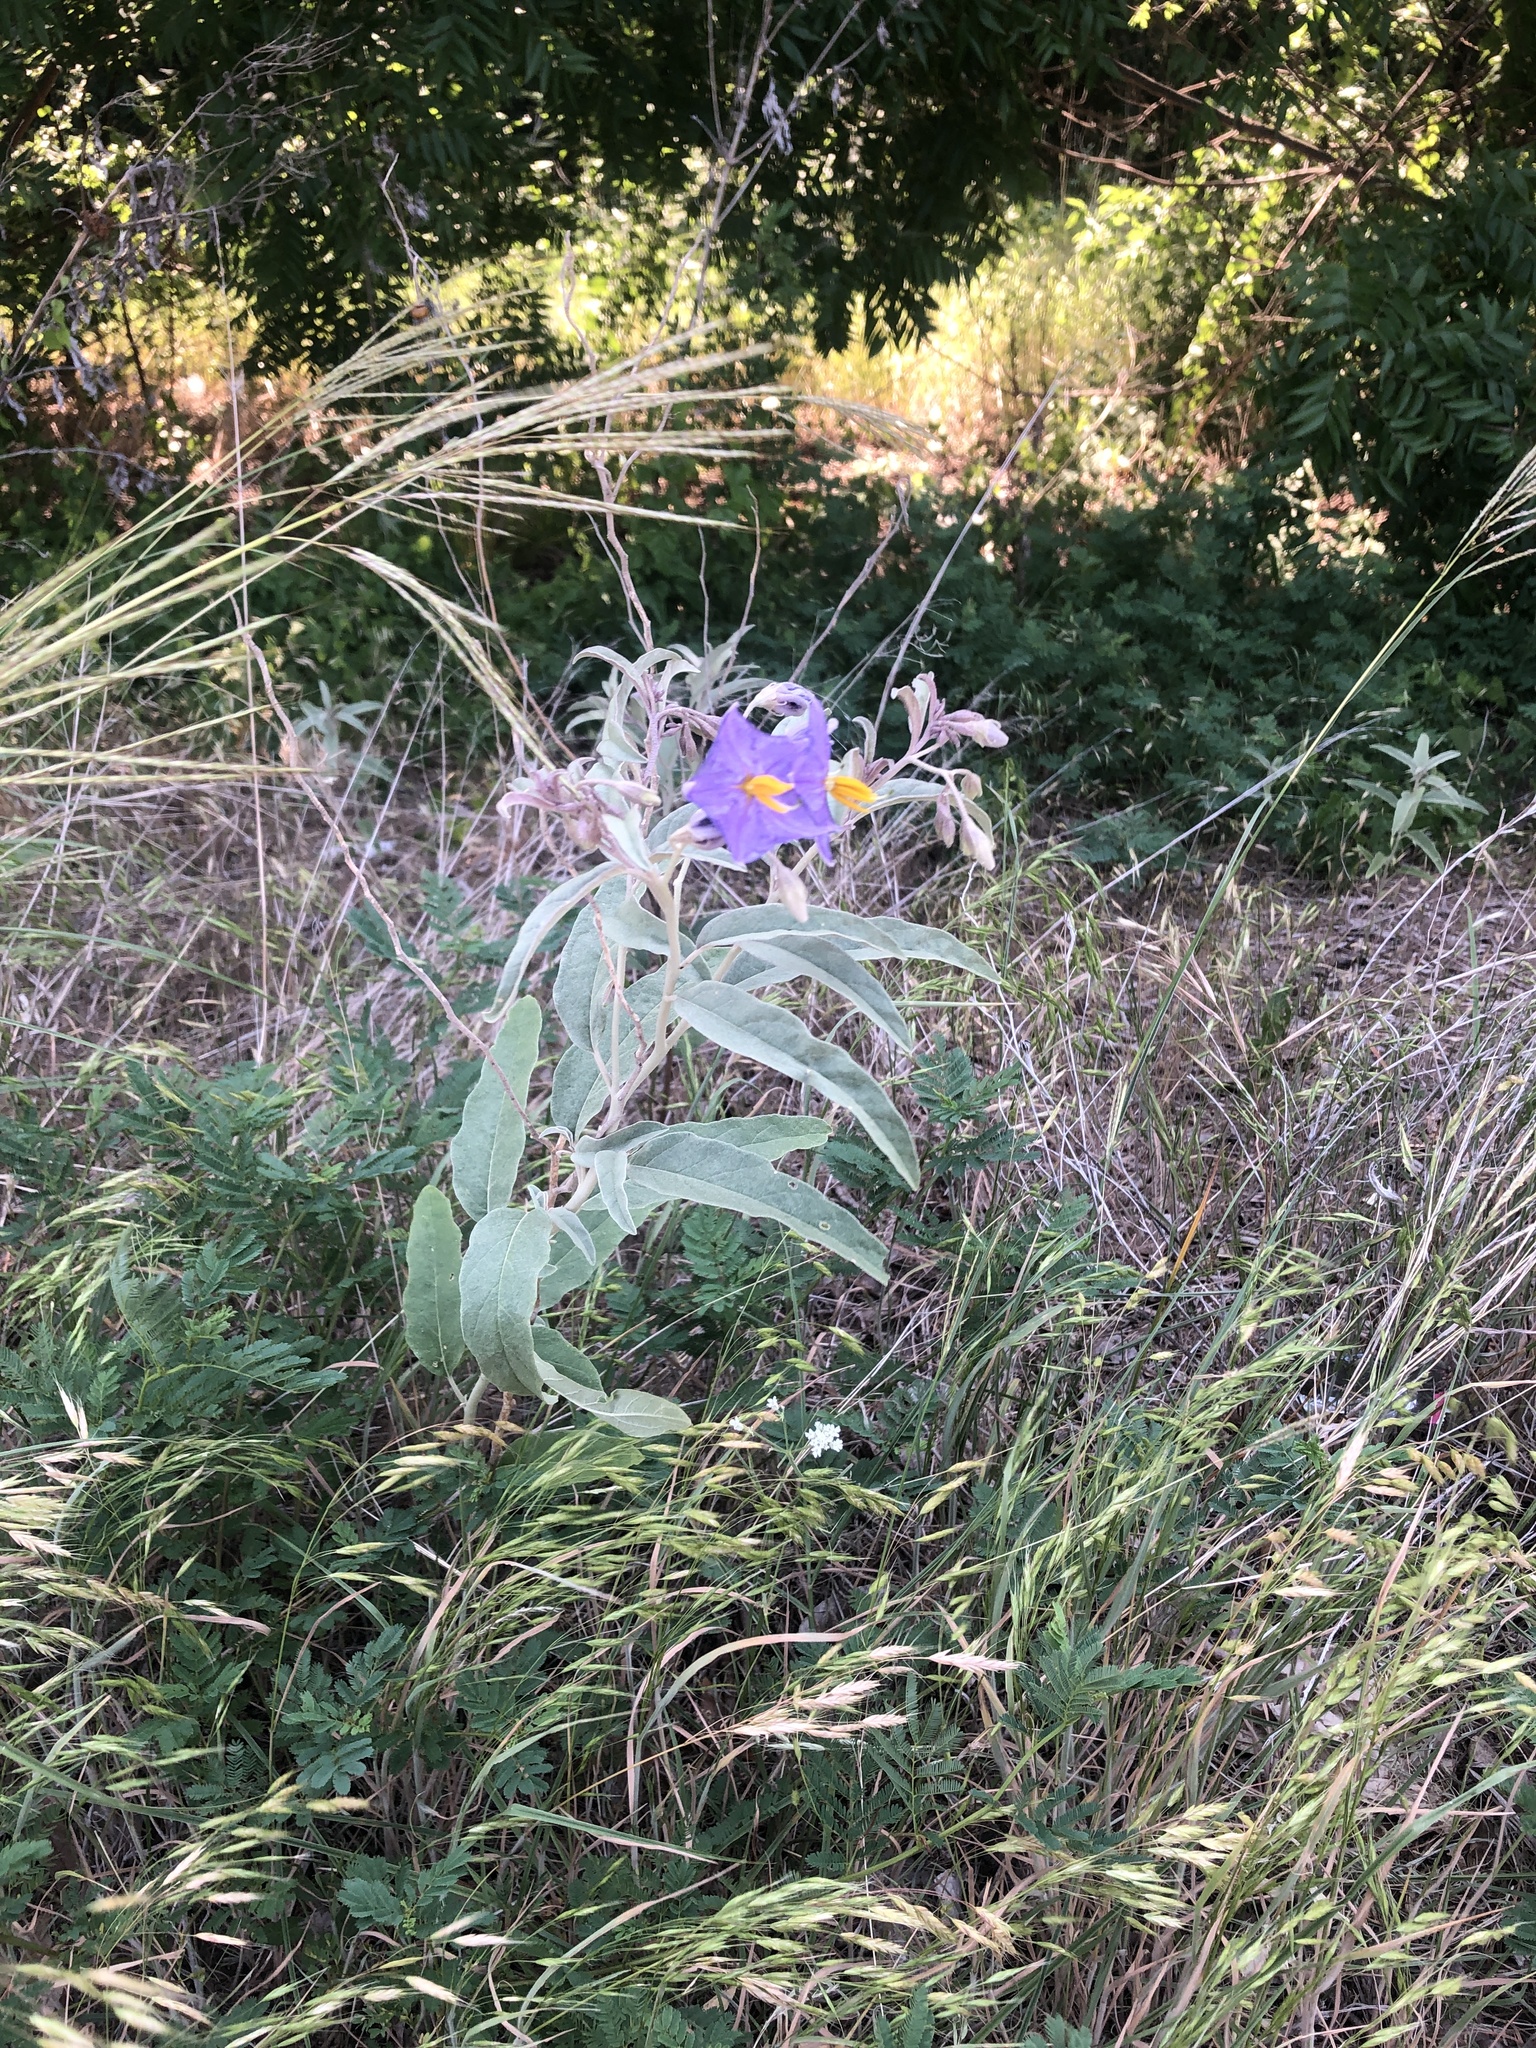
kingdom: Plantae
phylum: Tracheophyta
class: Magnoliopsida
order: Solanales
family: Solanaceae
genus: Solanum
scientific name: Solanum elaeagnifolium
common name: Silverleaf nightshade
